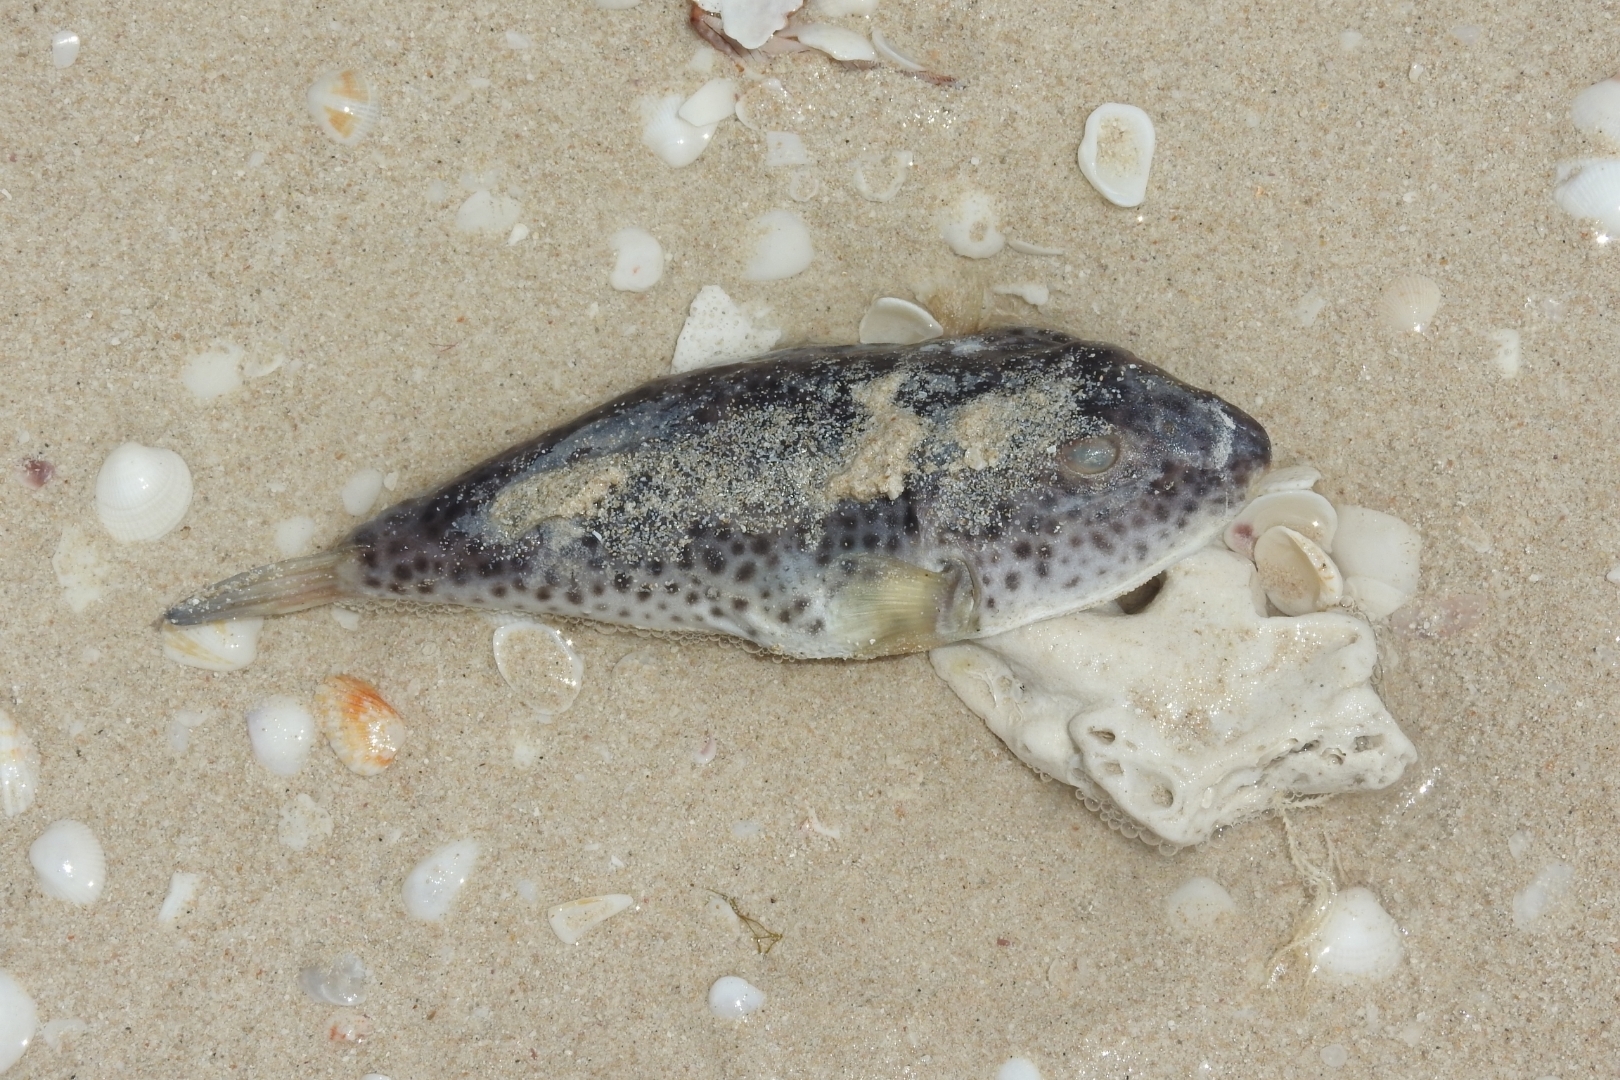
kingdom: Animalia
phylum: Chordata
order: Tetraodontiformes
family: Tetraodontidae
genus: Sphoeroides
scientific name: Sphoeroides testudineus
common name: Checkered puffer
